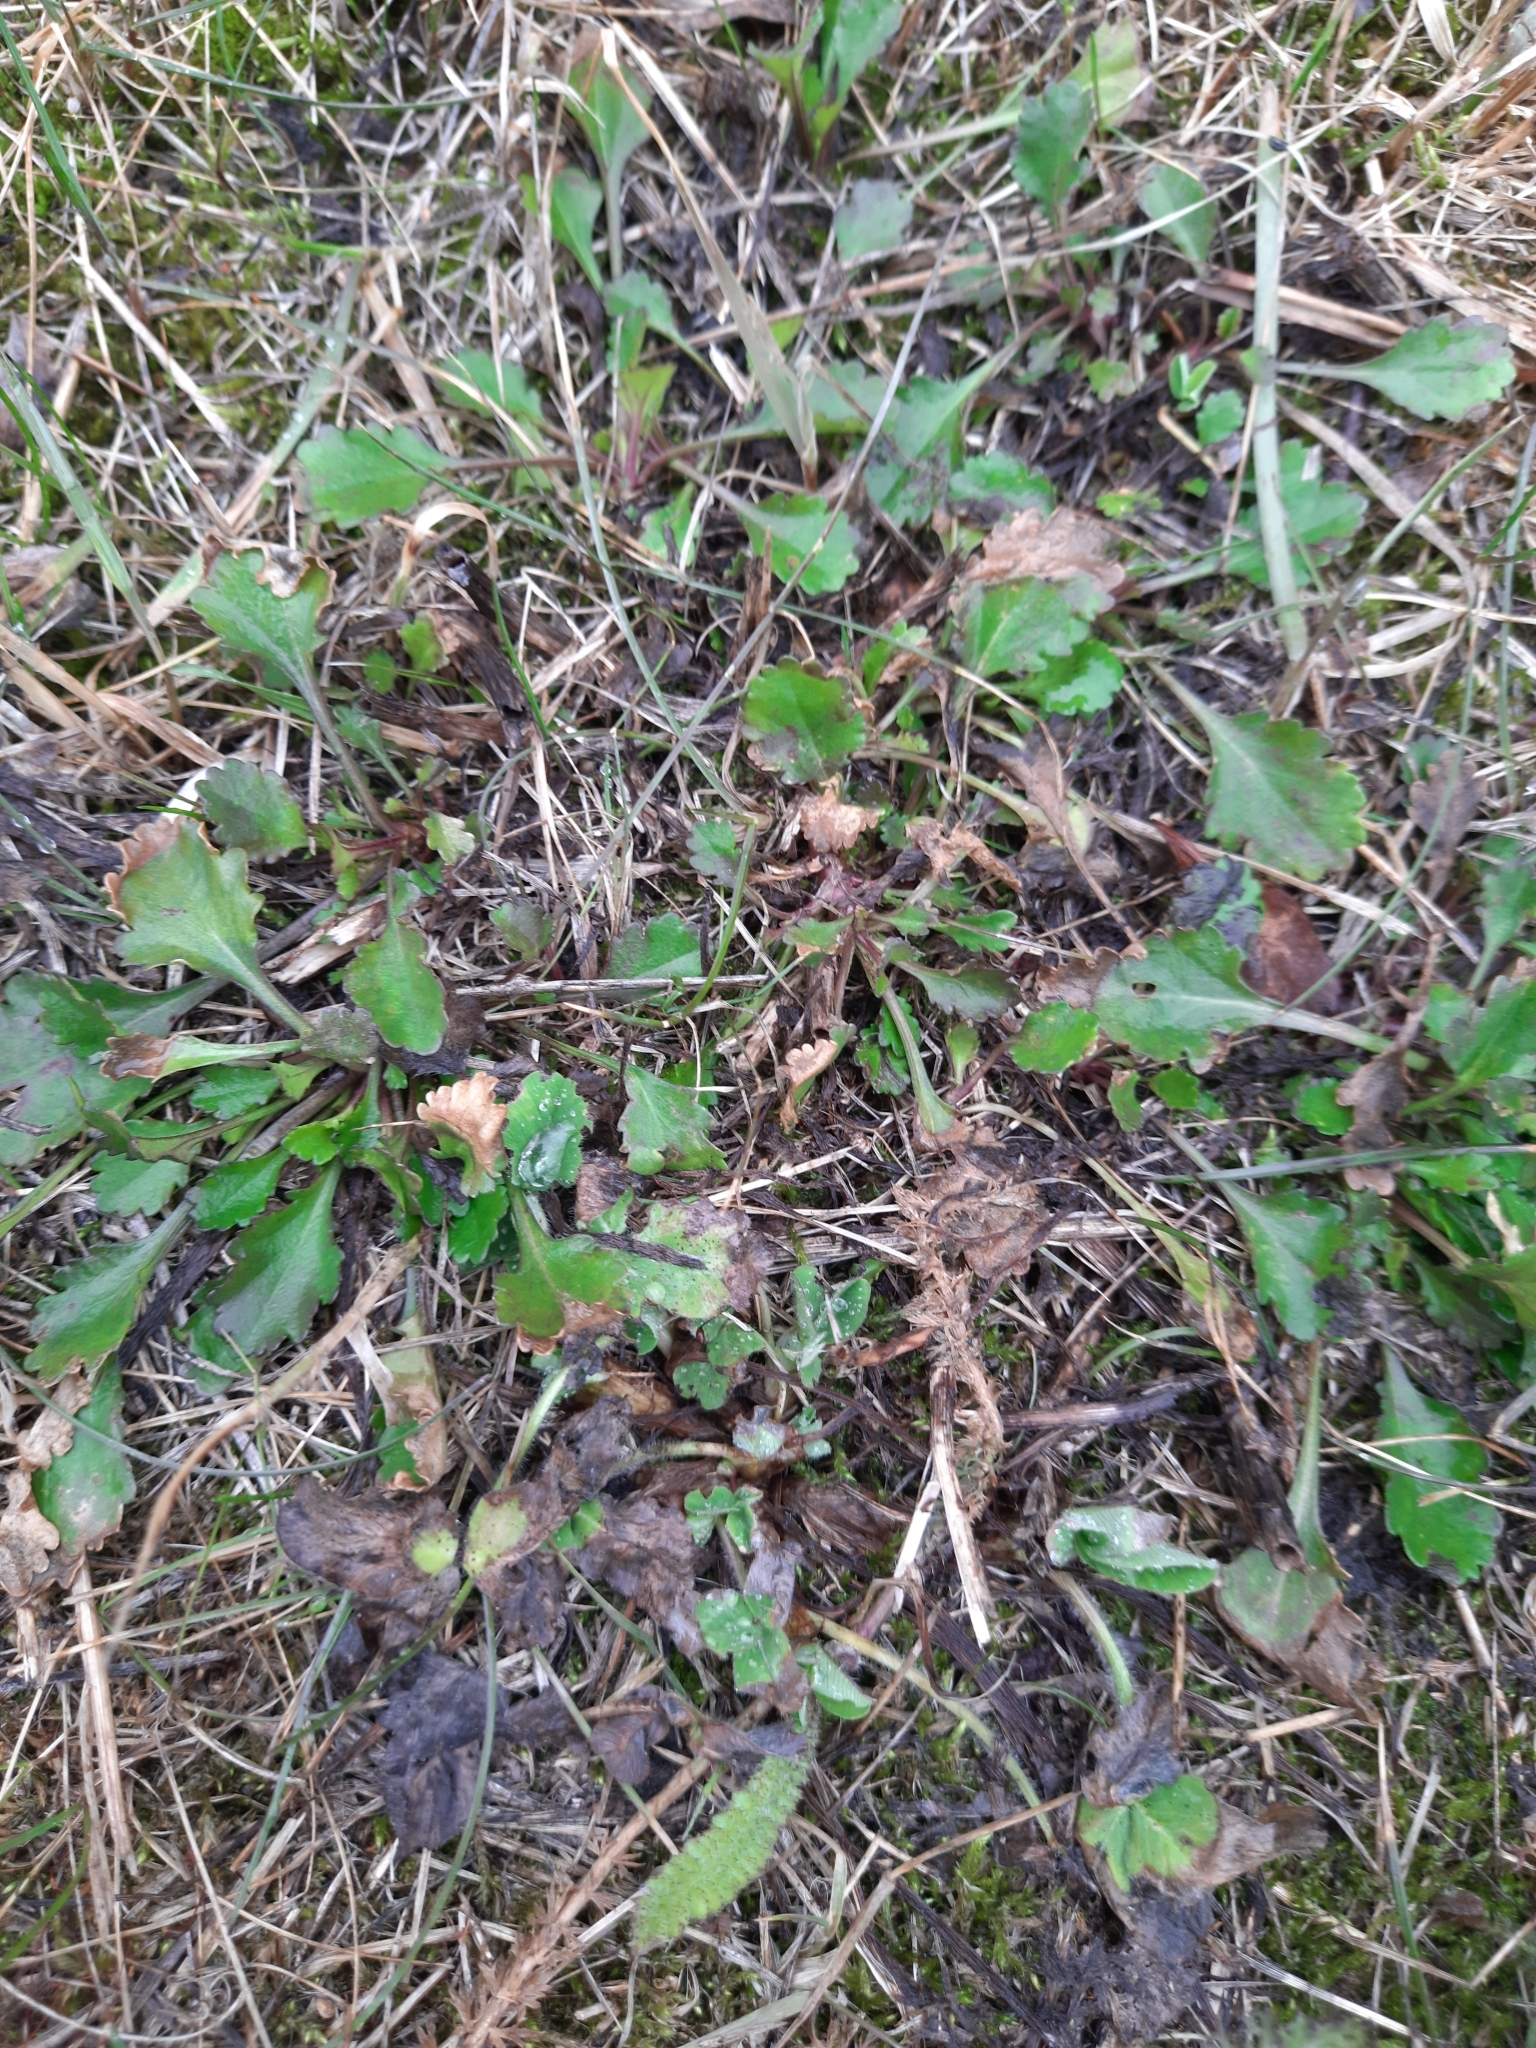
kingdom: Plantae
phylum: Tracheophyta
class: Magnoliopsida
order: Asterales
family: Asteraceae
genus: Leucanthemum
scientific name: Leucanthemum ircutianum
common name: Daisy
